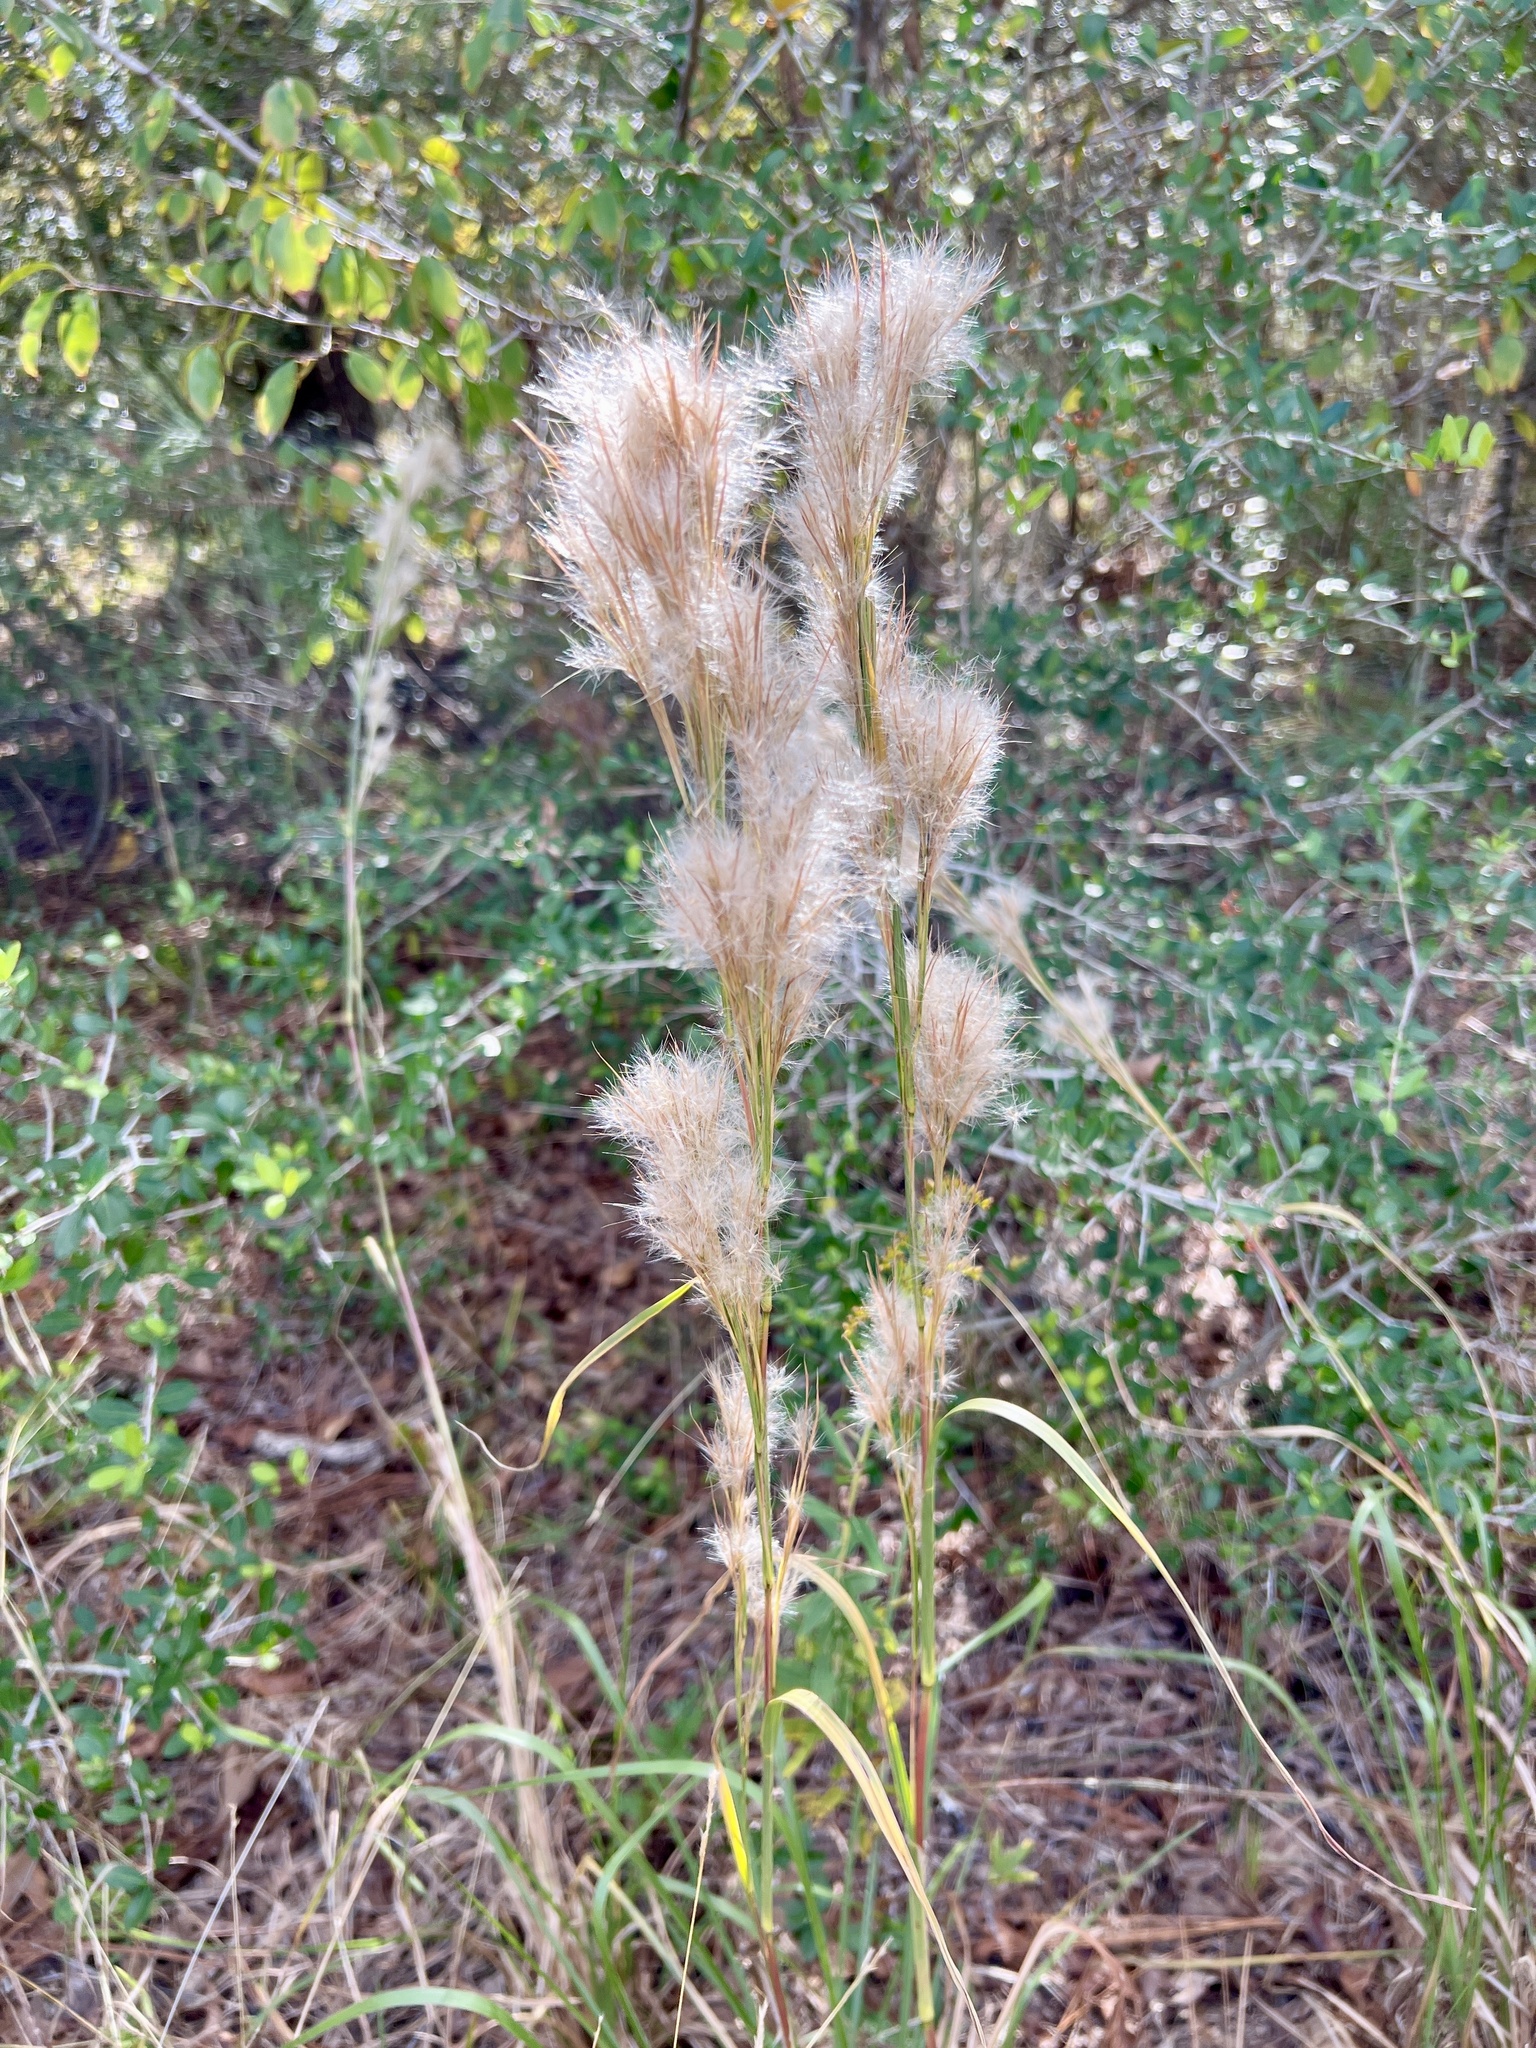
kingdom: Plantae
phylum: Tracheophyta
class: Liliopsida
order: Poales
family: Poaceae
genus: Andropogon
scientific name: Andropogon tenuispatheus
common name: Bushy bluestem
